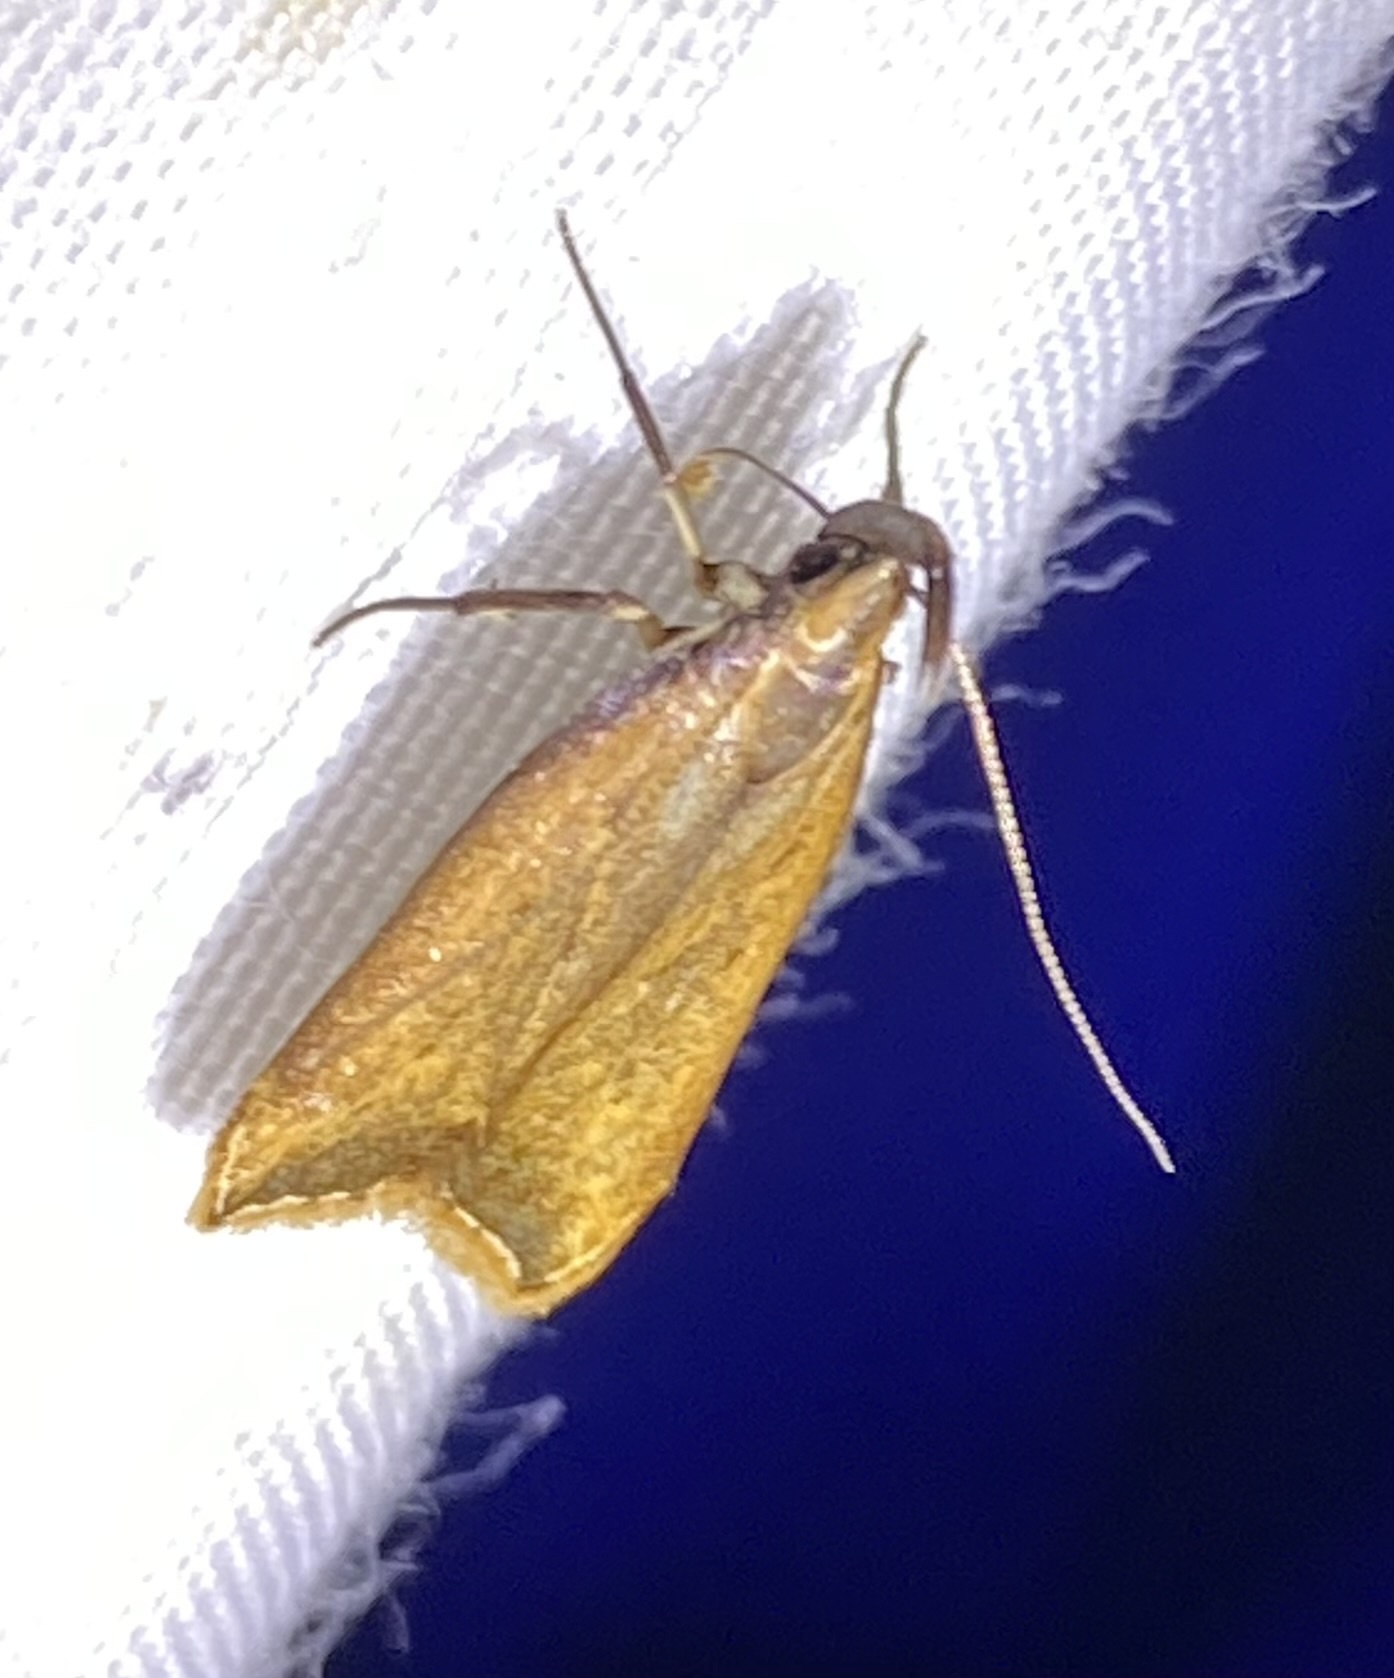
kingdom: Animalia
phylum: Arthropoda
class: Insecta
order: Lepidoptera
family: Gelechiidae
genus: Dichomeris
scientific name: Dichomeris heriguronis
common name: Black-edged dichomeris moth
